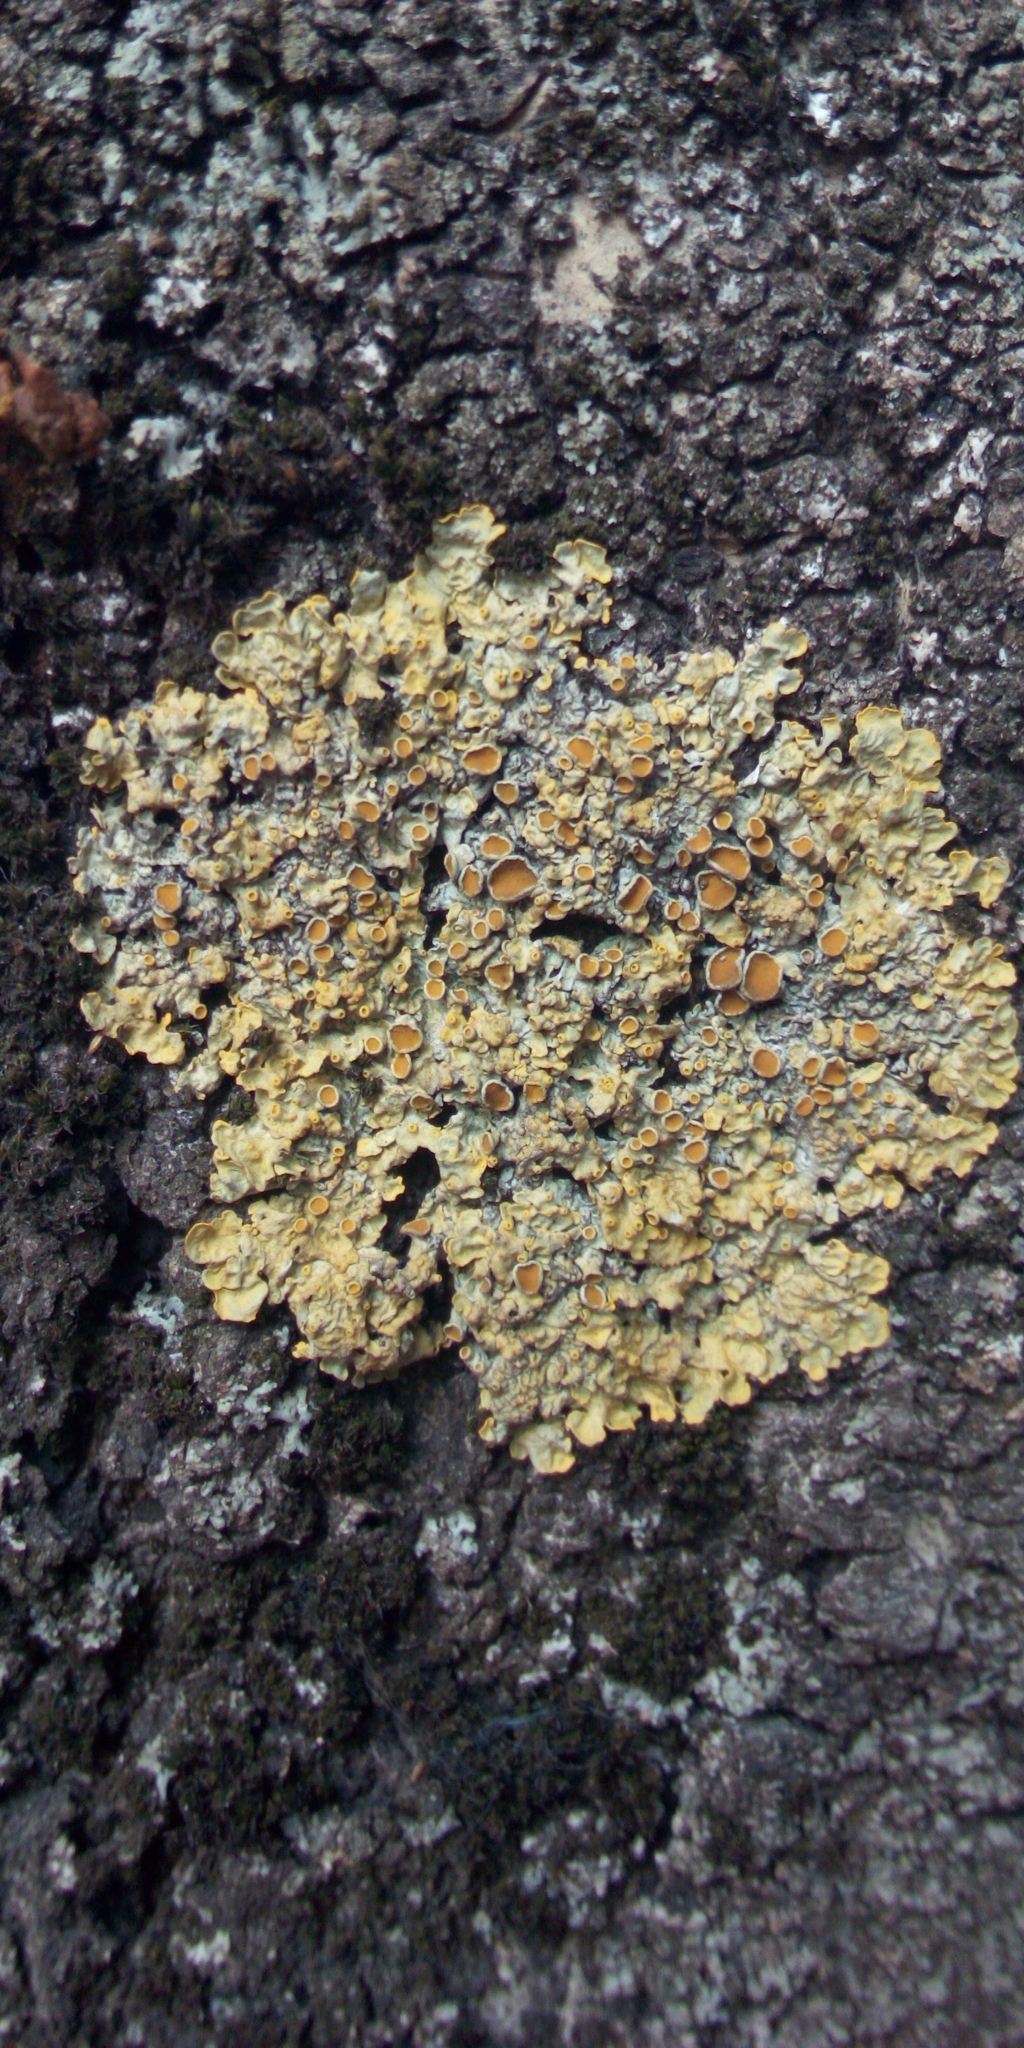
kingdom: Fungi
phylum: Ascomycota
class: Lecanoromycetes
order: Teloschistales
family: Teloschistaceae
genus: Xanthoria
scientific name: Xanthoria parietina
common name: Common orange lichen
